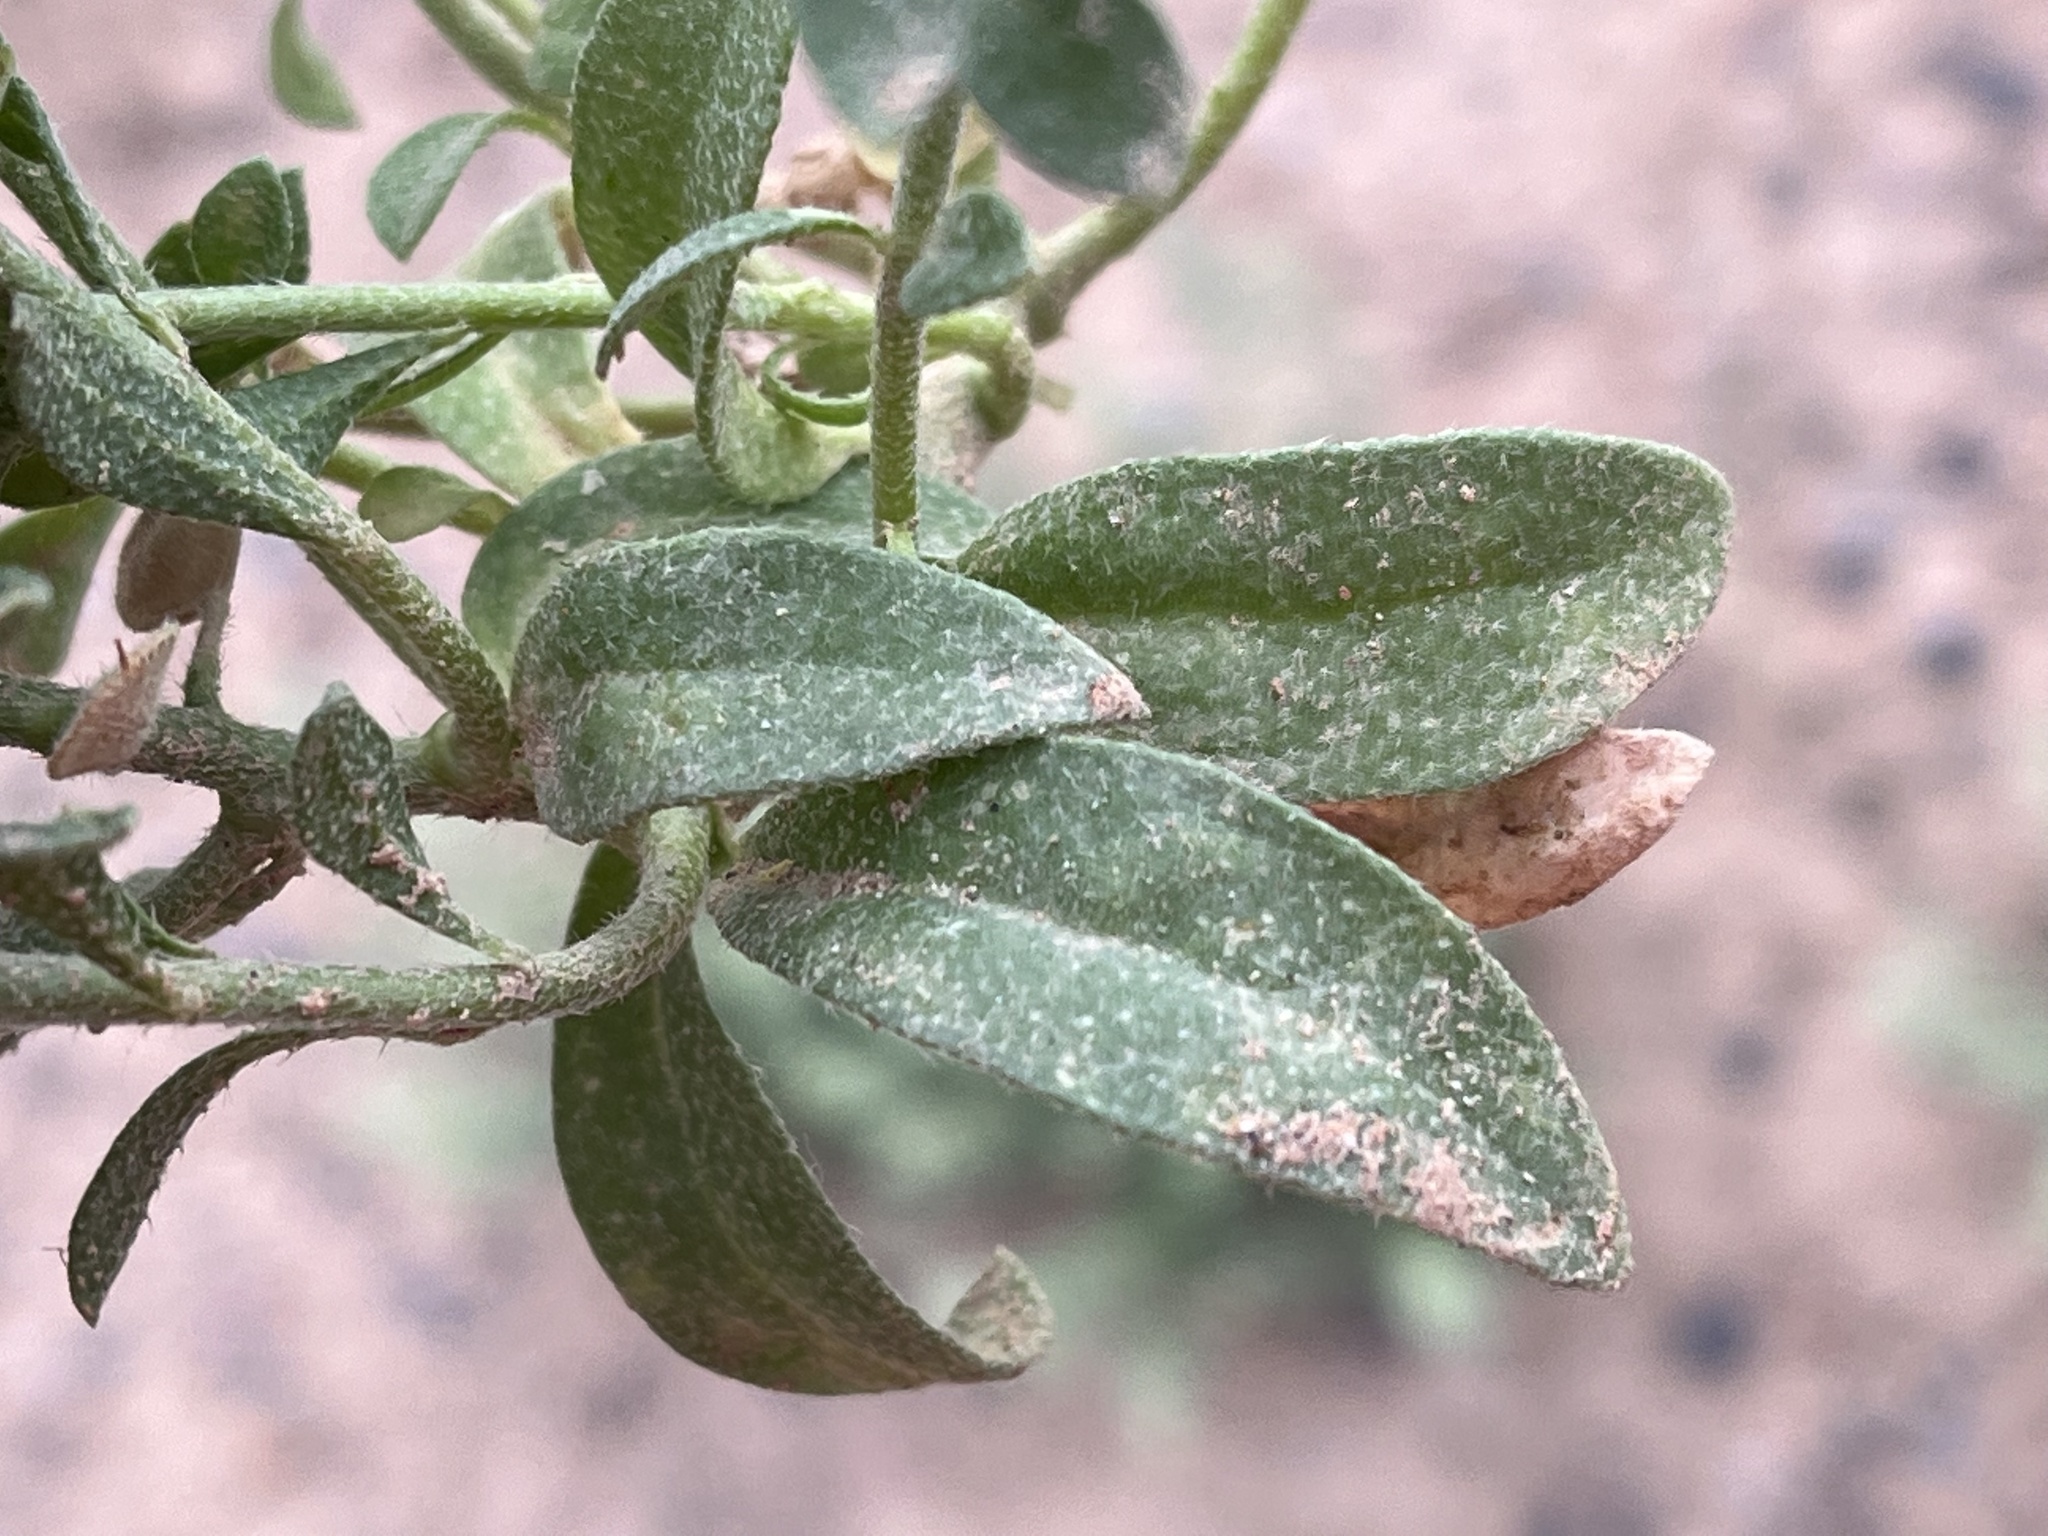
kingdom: Plantae
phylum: Tracheophyta
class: Magnoliopsida
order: Brassicales
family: Brassicaceae
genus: Alyssum
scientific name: Alyssum simplex
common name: Alyssum
